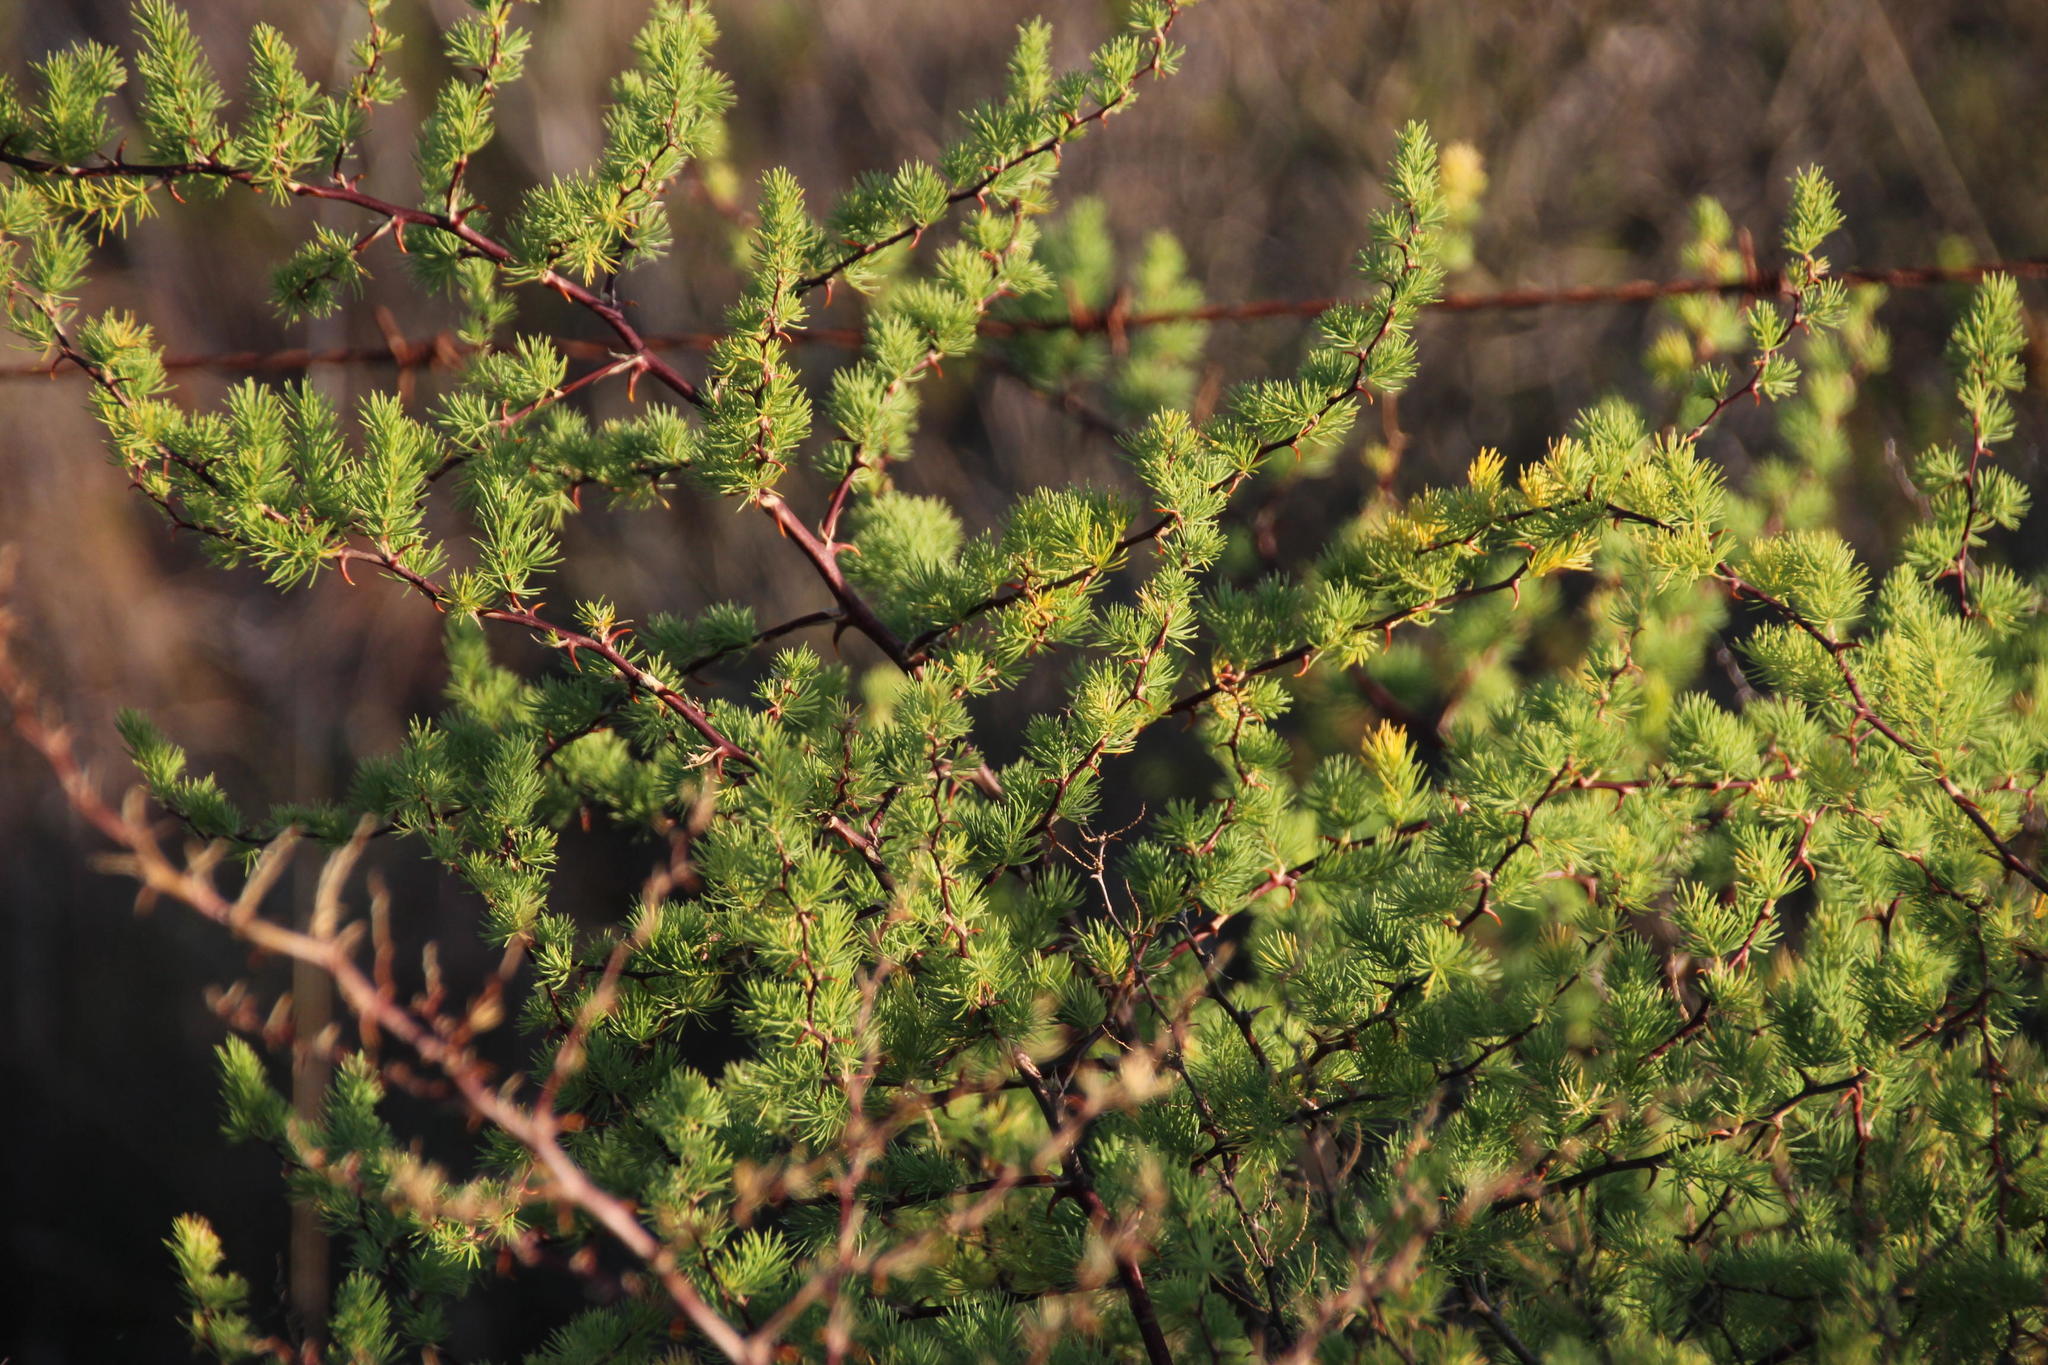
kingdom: Plantae
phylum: Tracheophyta
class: Liliopsida
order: Asparagales
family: Asparagaceae
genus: Asparagus
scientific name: Asparagus rubicundus
